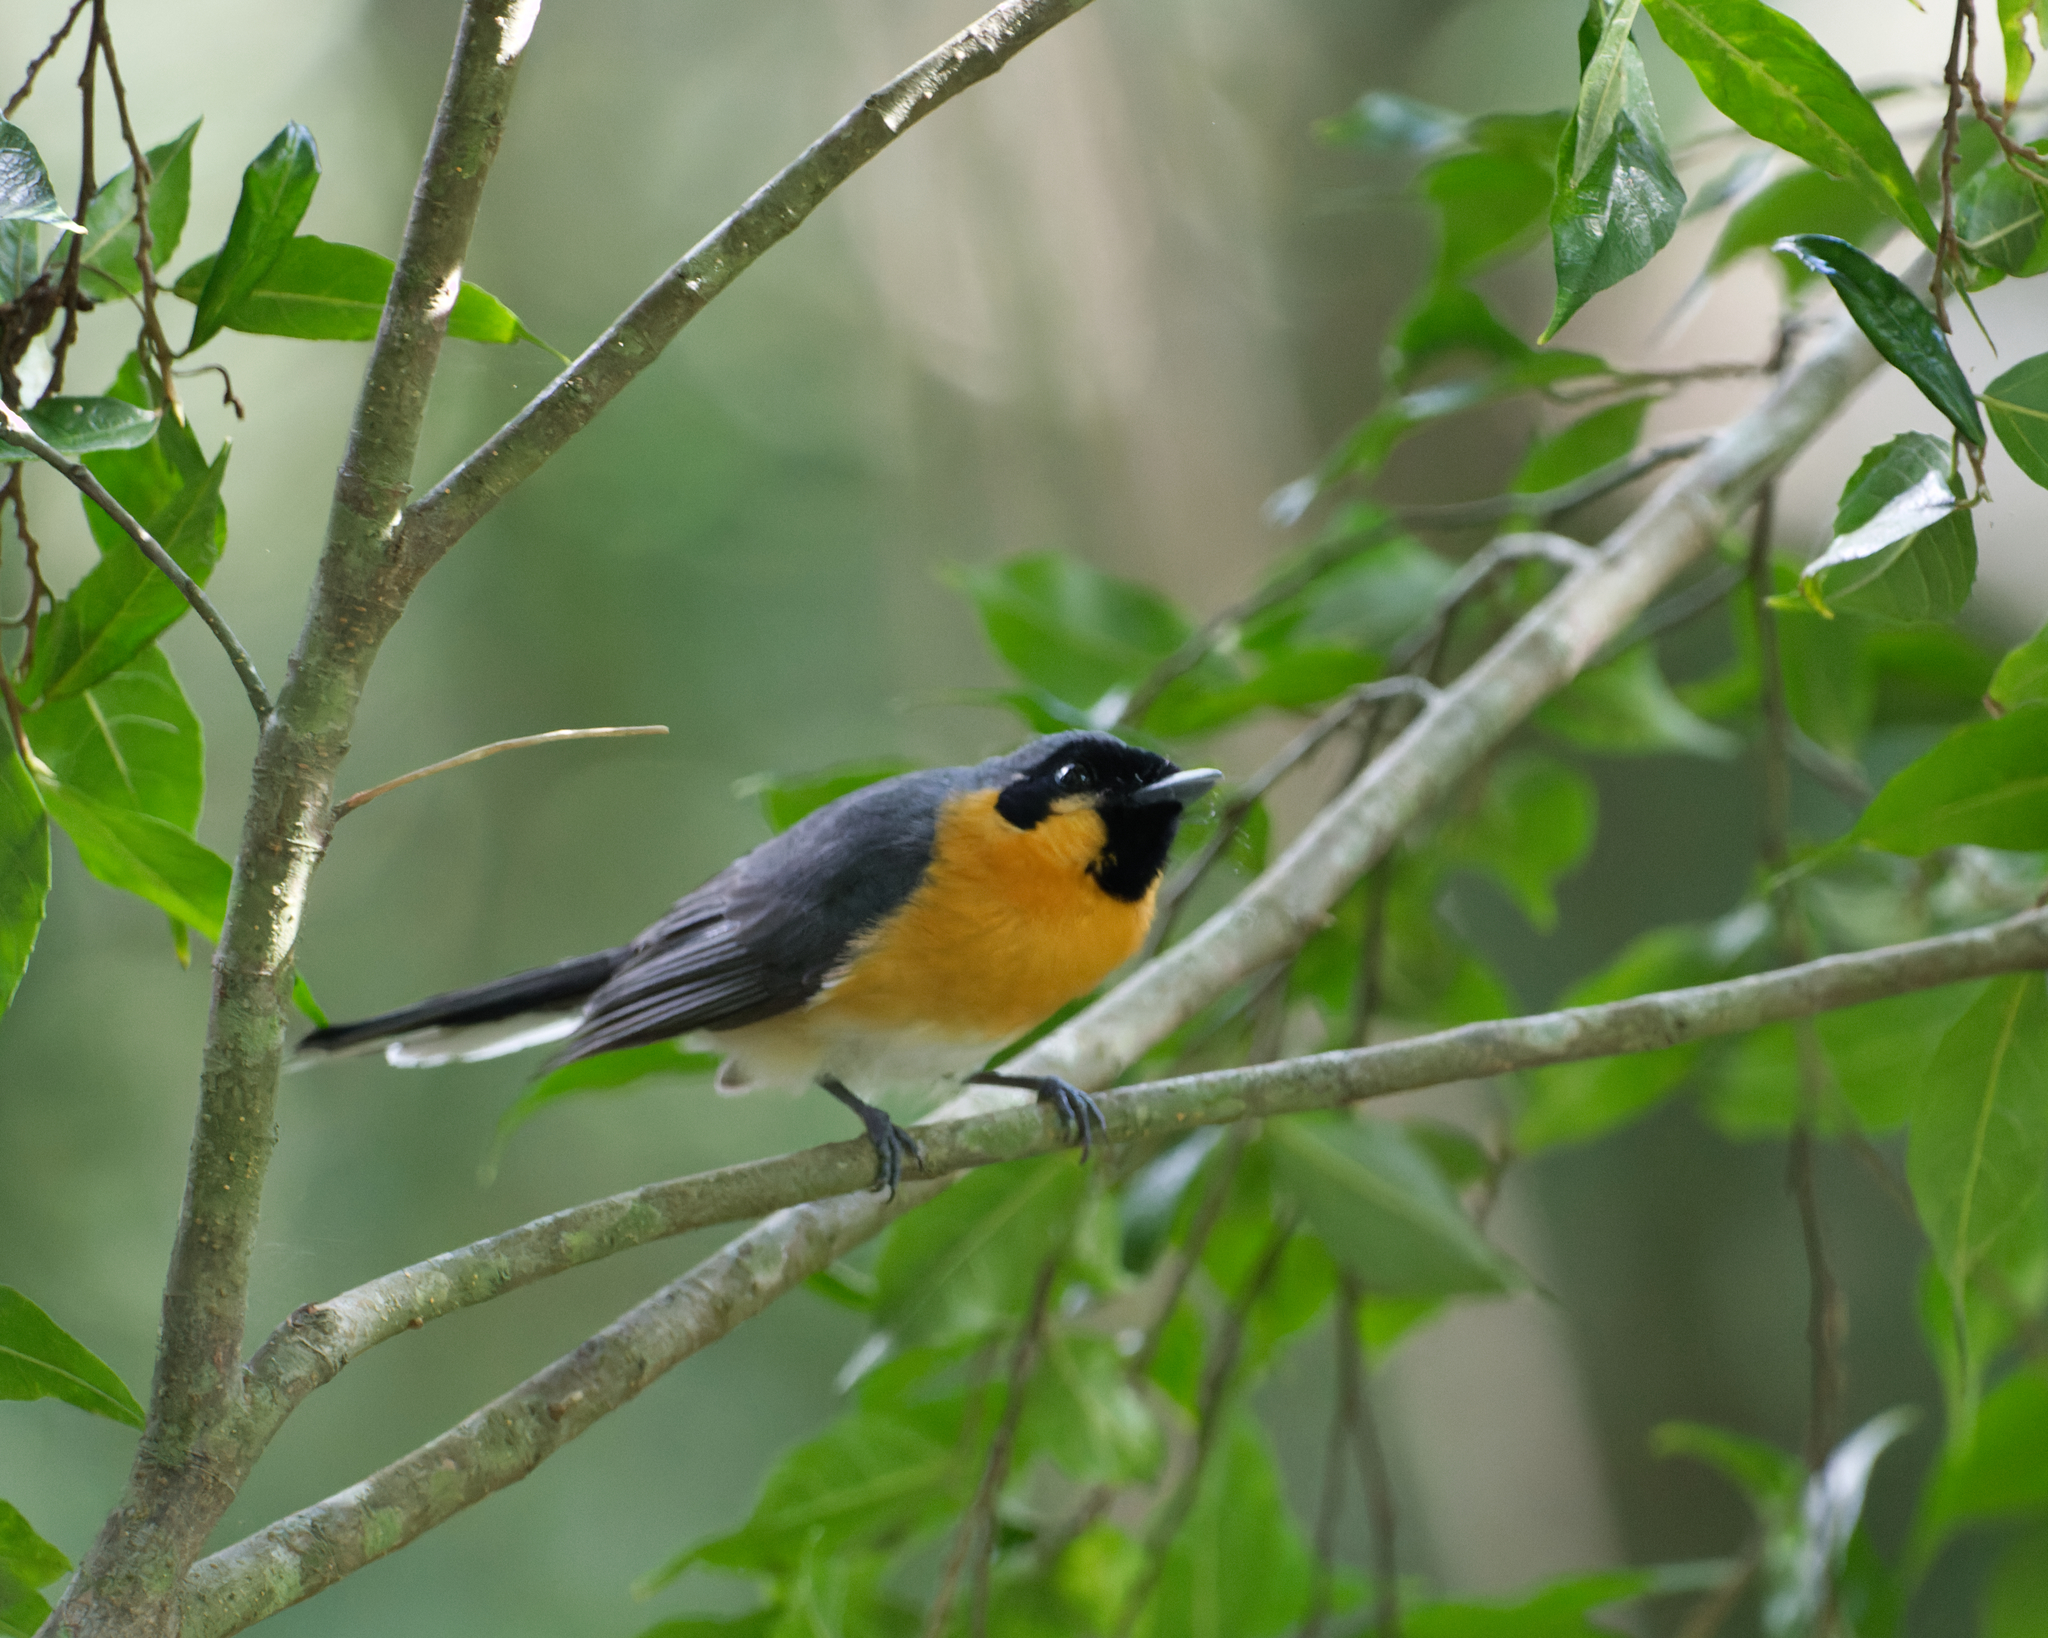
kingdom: Animalia
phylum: Chordata
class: Aves
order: Passeriformes
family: Monarchidae
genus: Symposiachrus
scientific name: Symposiachrus trivirgatus
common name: Spectacled monarch
